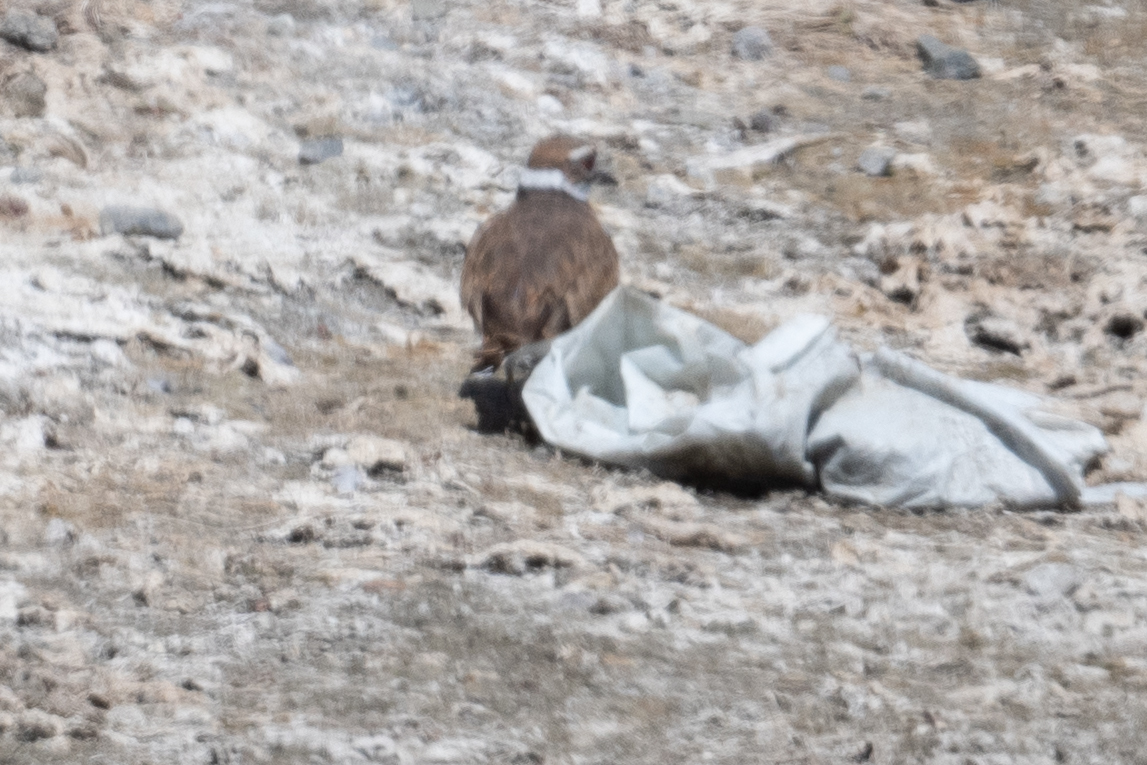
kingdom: Animalia
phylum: Chordata
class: Aves
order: Charadriiformes
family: Charadriidae
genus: Charadrius
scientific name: Charadrius vociferus
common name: Killdeer
